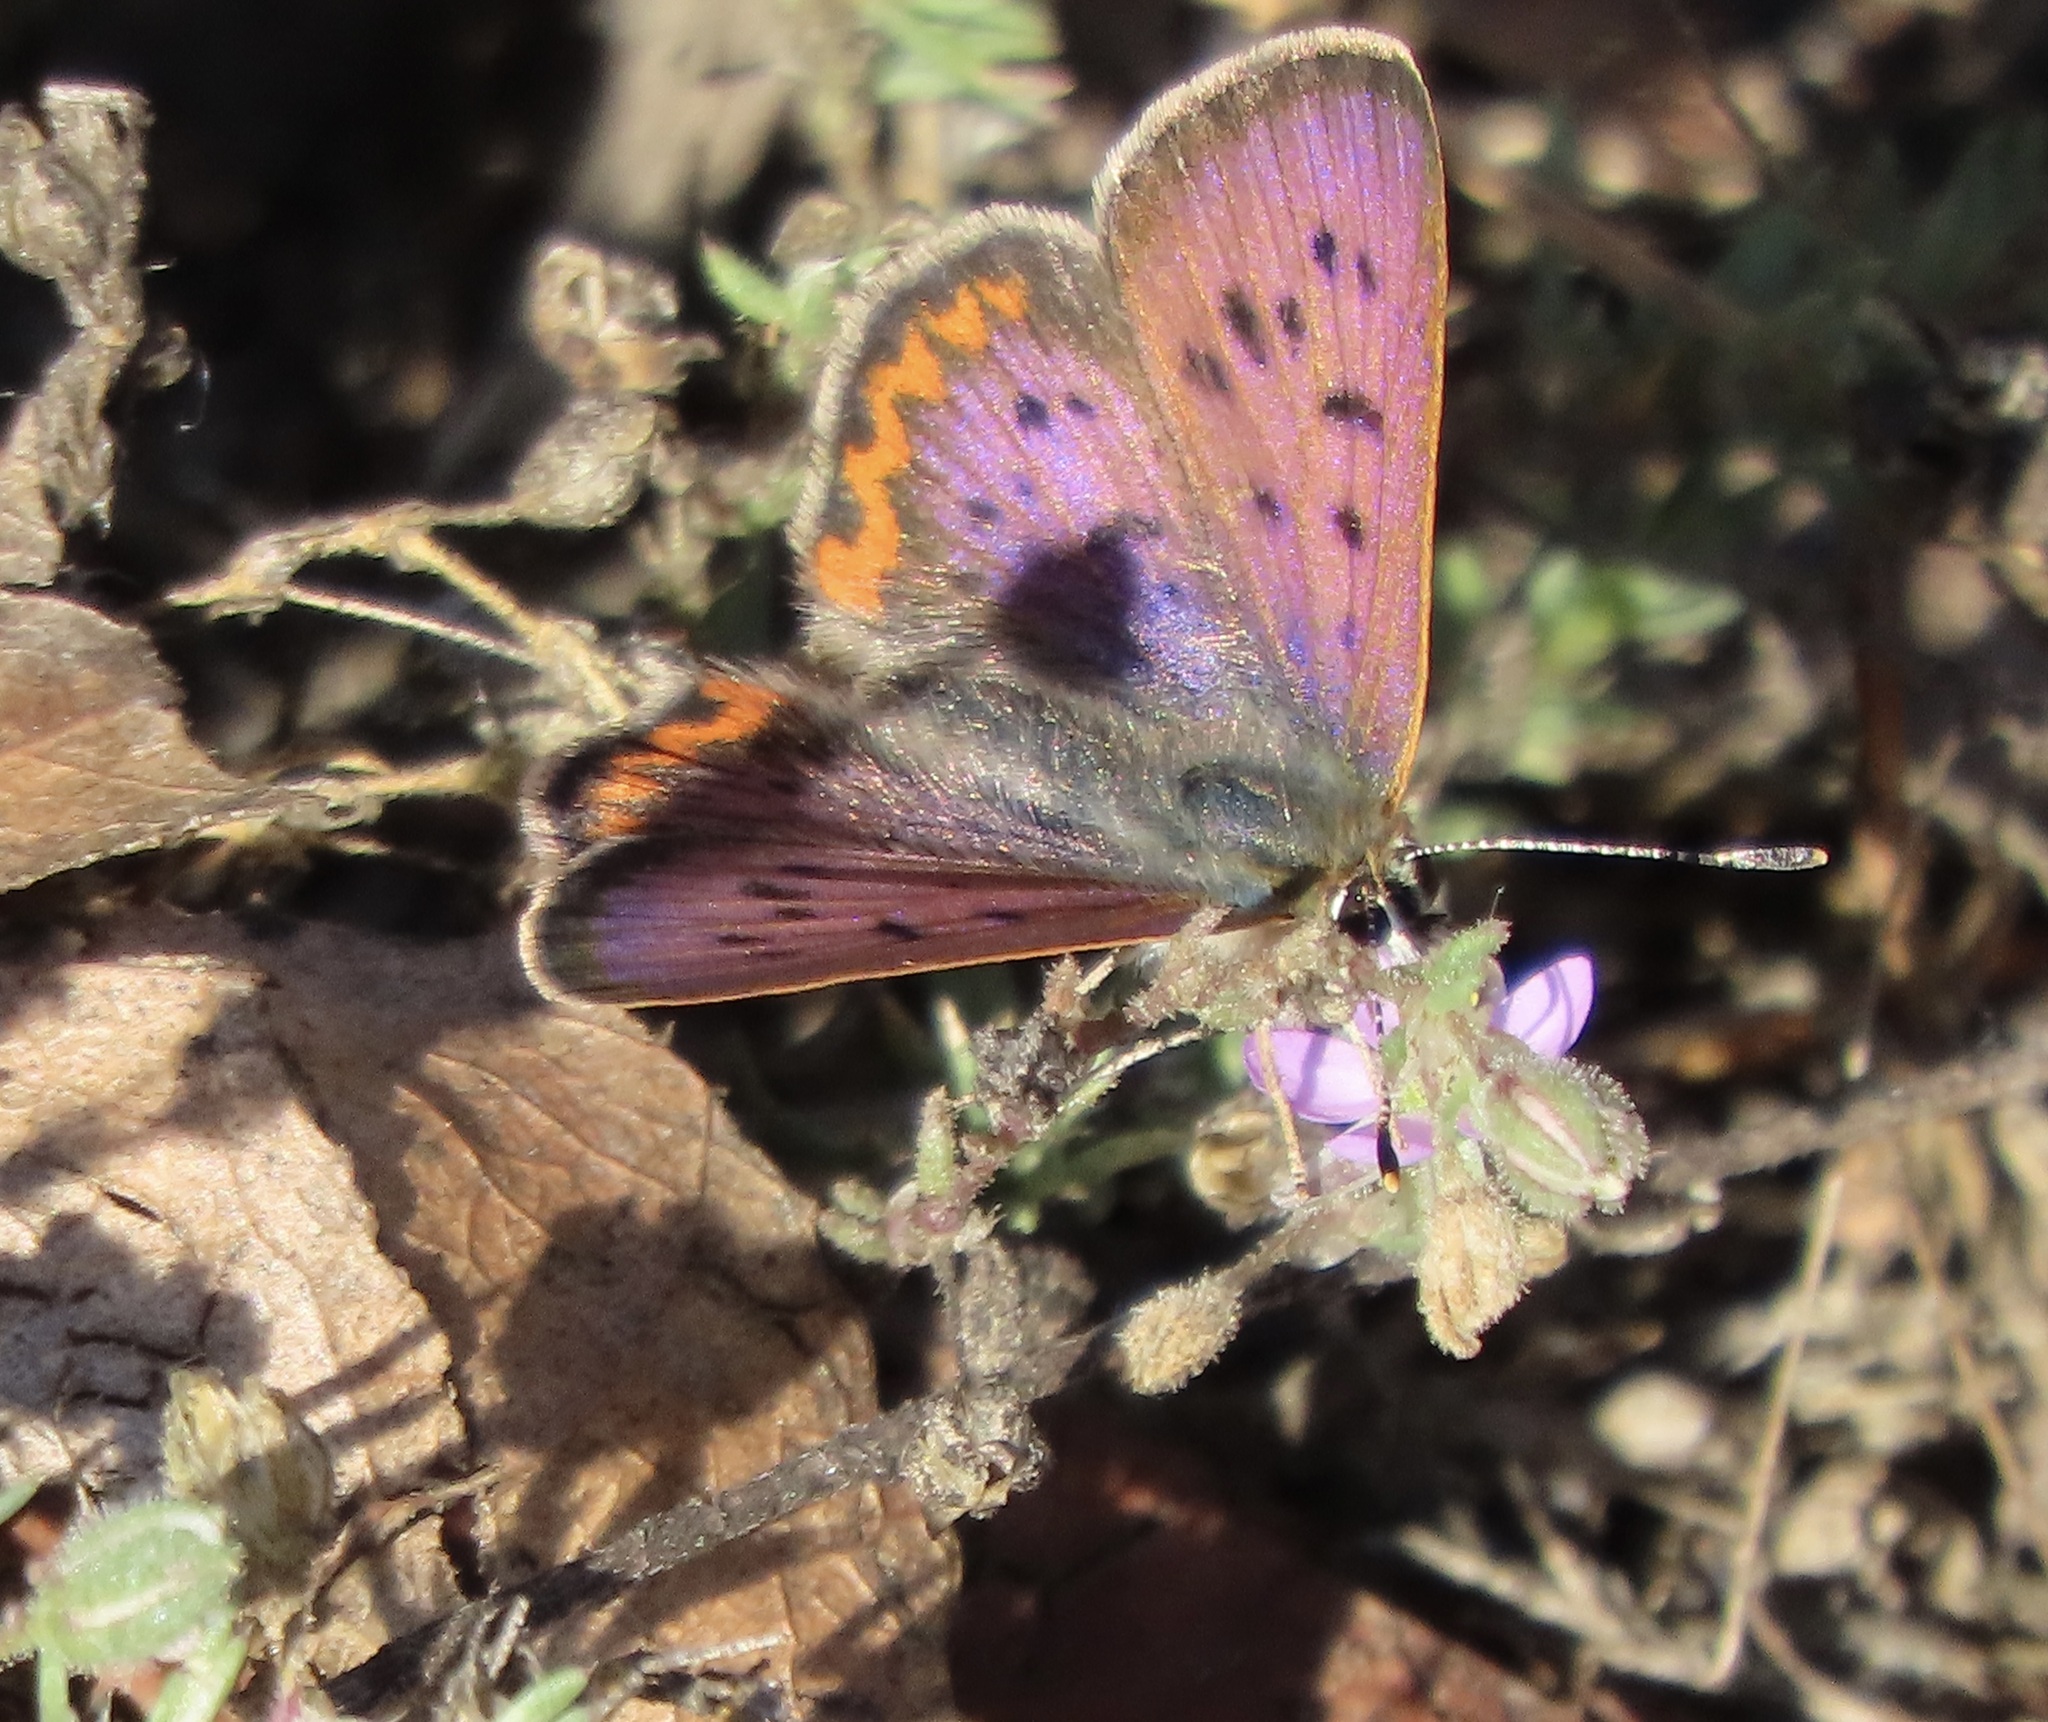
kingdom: Animalia
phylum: Arthropoda
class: Insecta
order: Lepidoptera
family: Lycaenidae
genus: Tharsalea
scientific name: Tharsalea helloides
